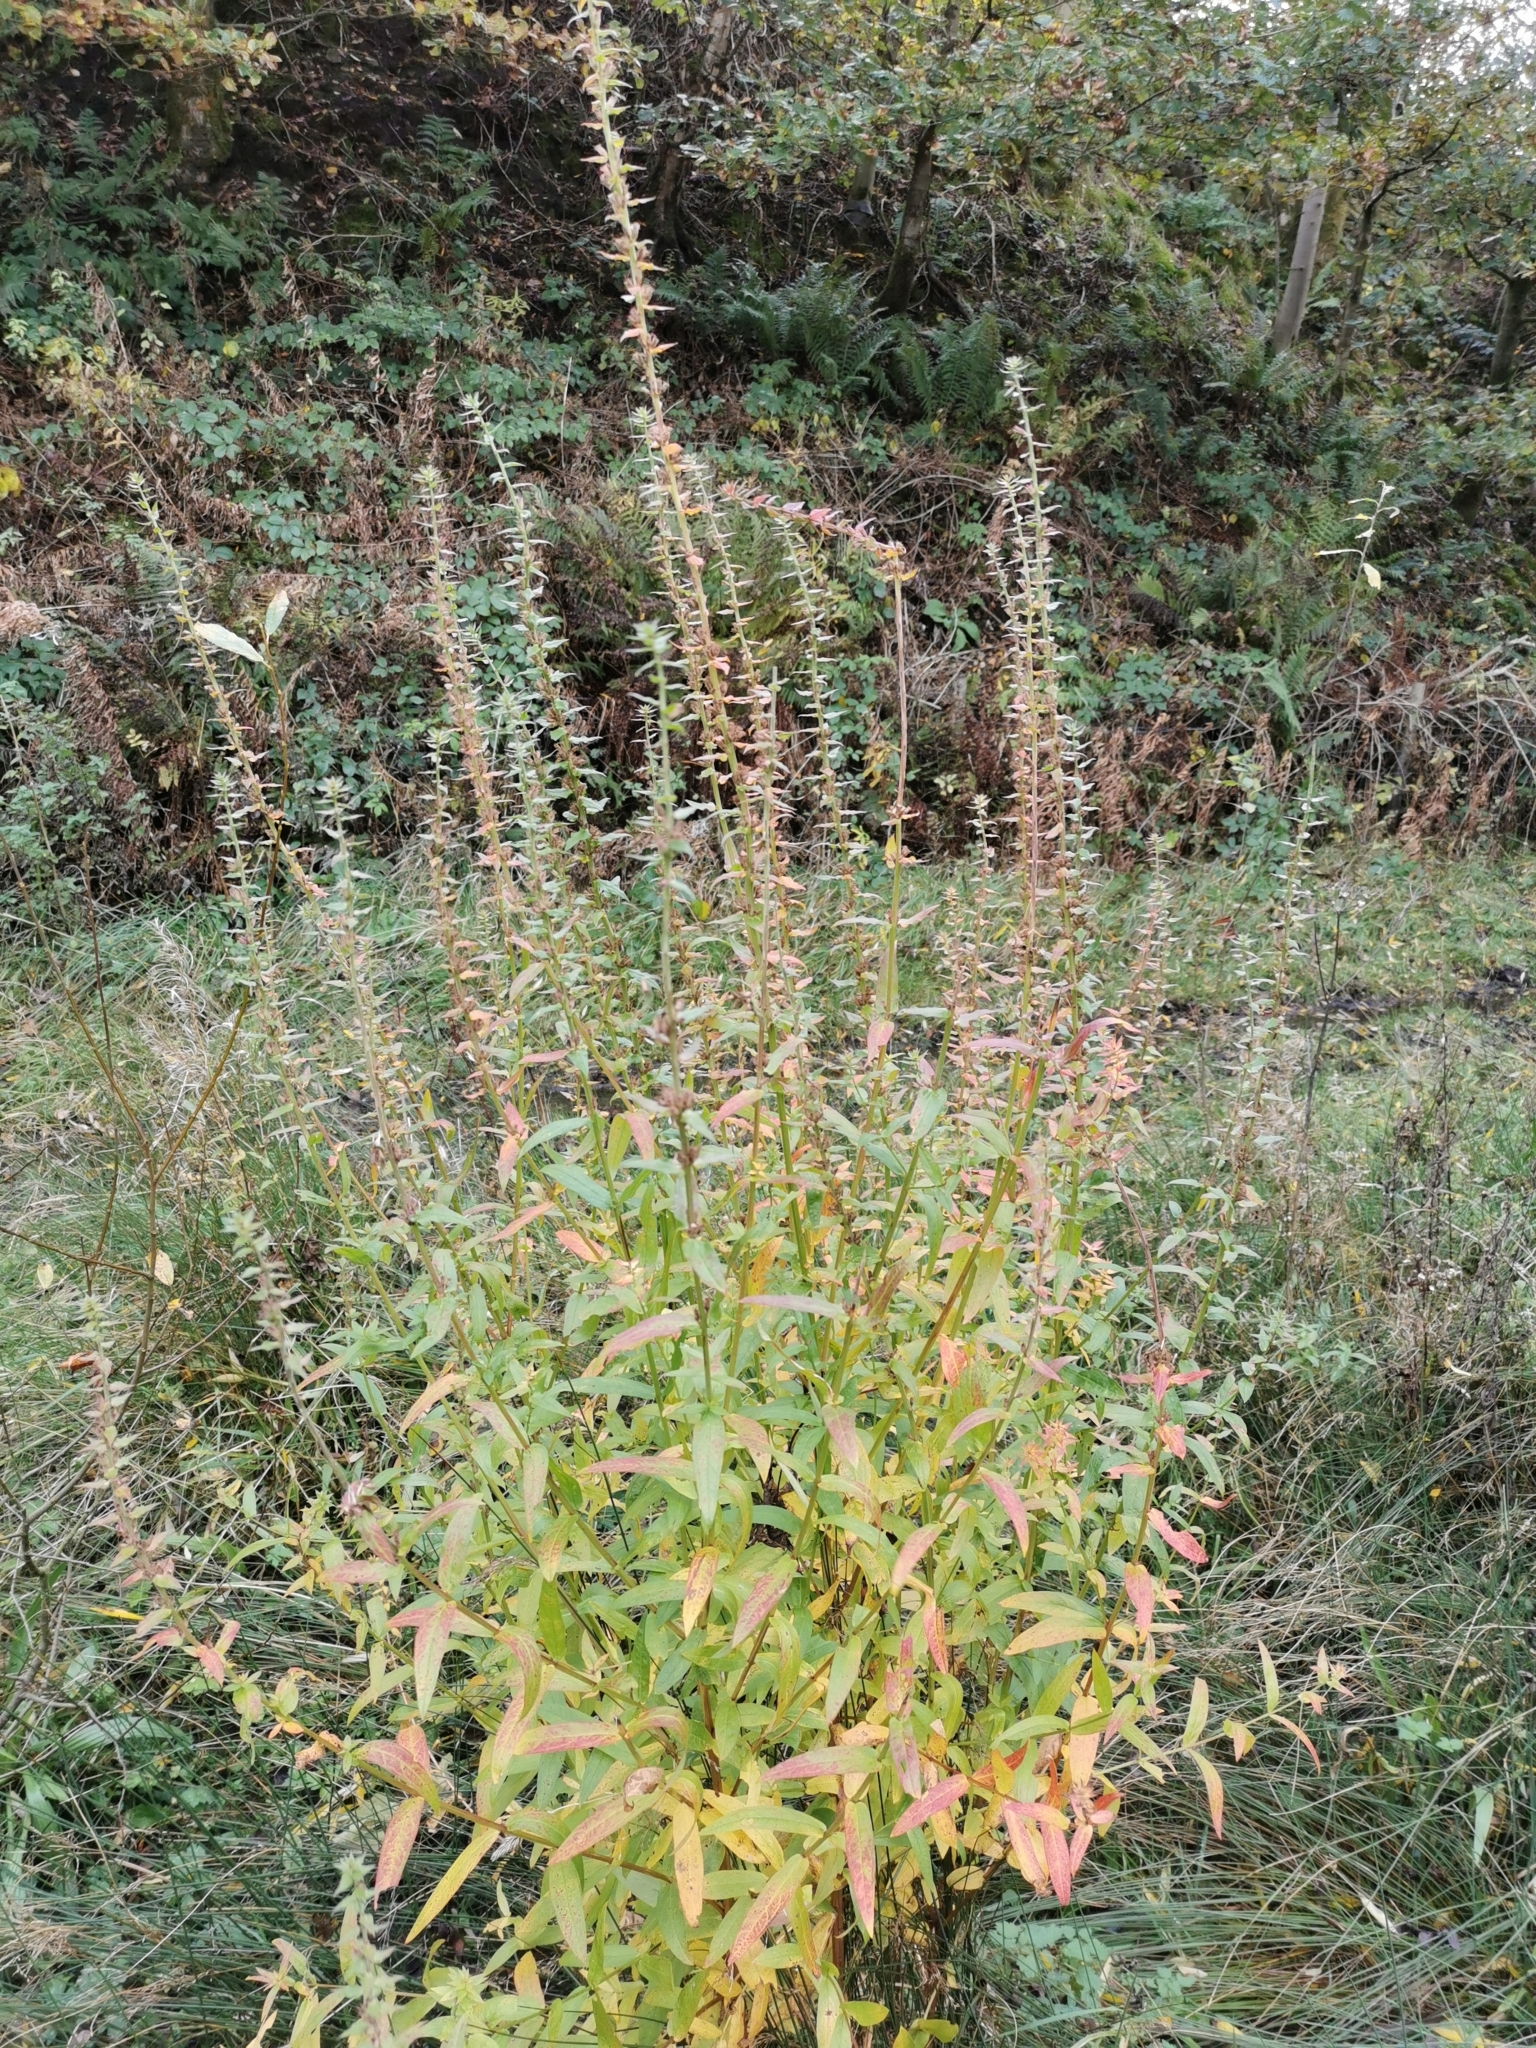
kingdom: Plantae
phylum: Tracheophyta
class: Magnoliopsida
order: Myrtales
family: Lythraceae
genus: Lythrum
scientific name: Lythrum salicaria
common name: Purple loosestrife
